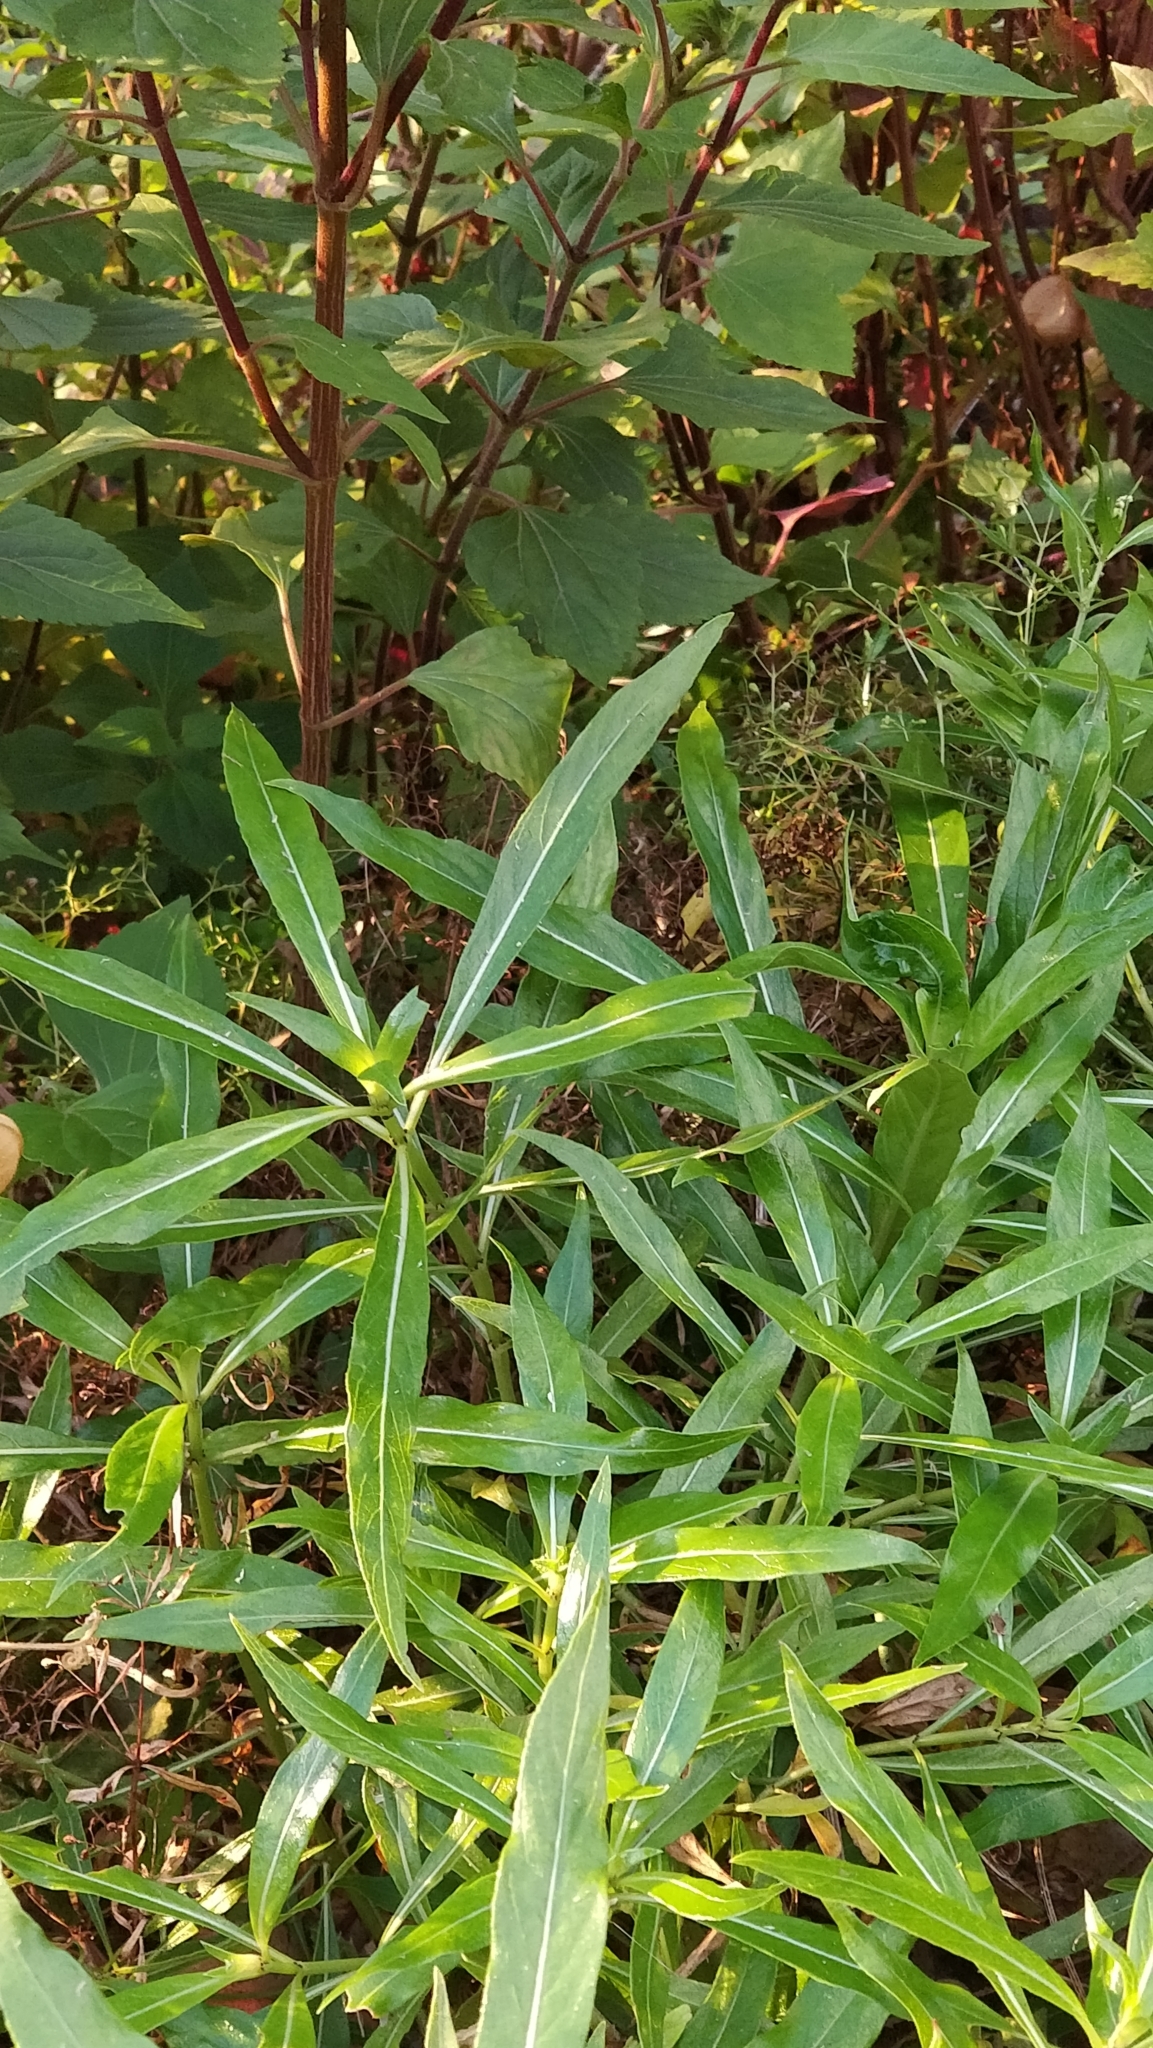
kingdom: Plantae
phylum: Tracheophyta
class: Magnoliopsida
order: Gentianales
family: Rubiaceae
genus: Phyllis
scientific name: Phyllis nobla
